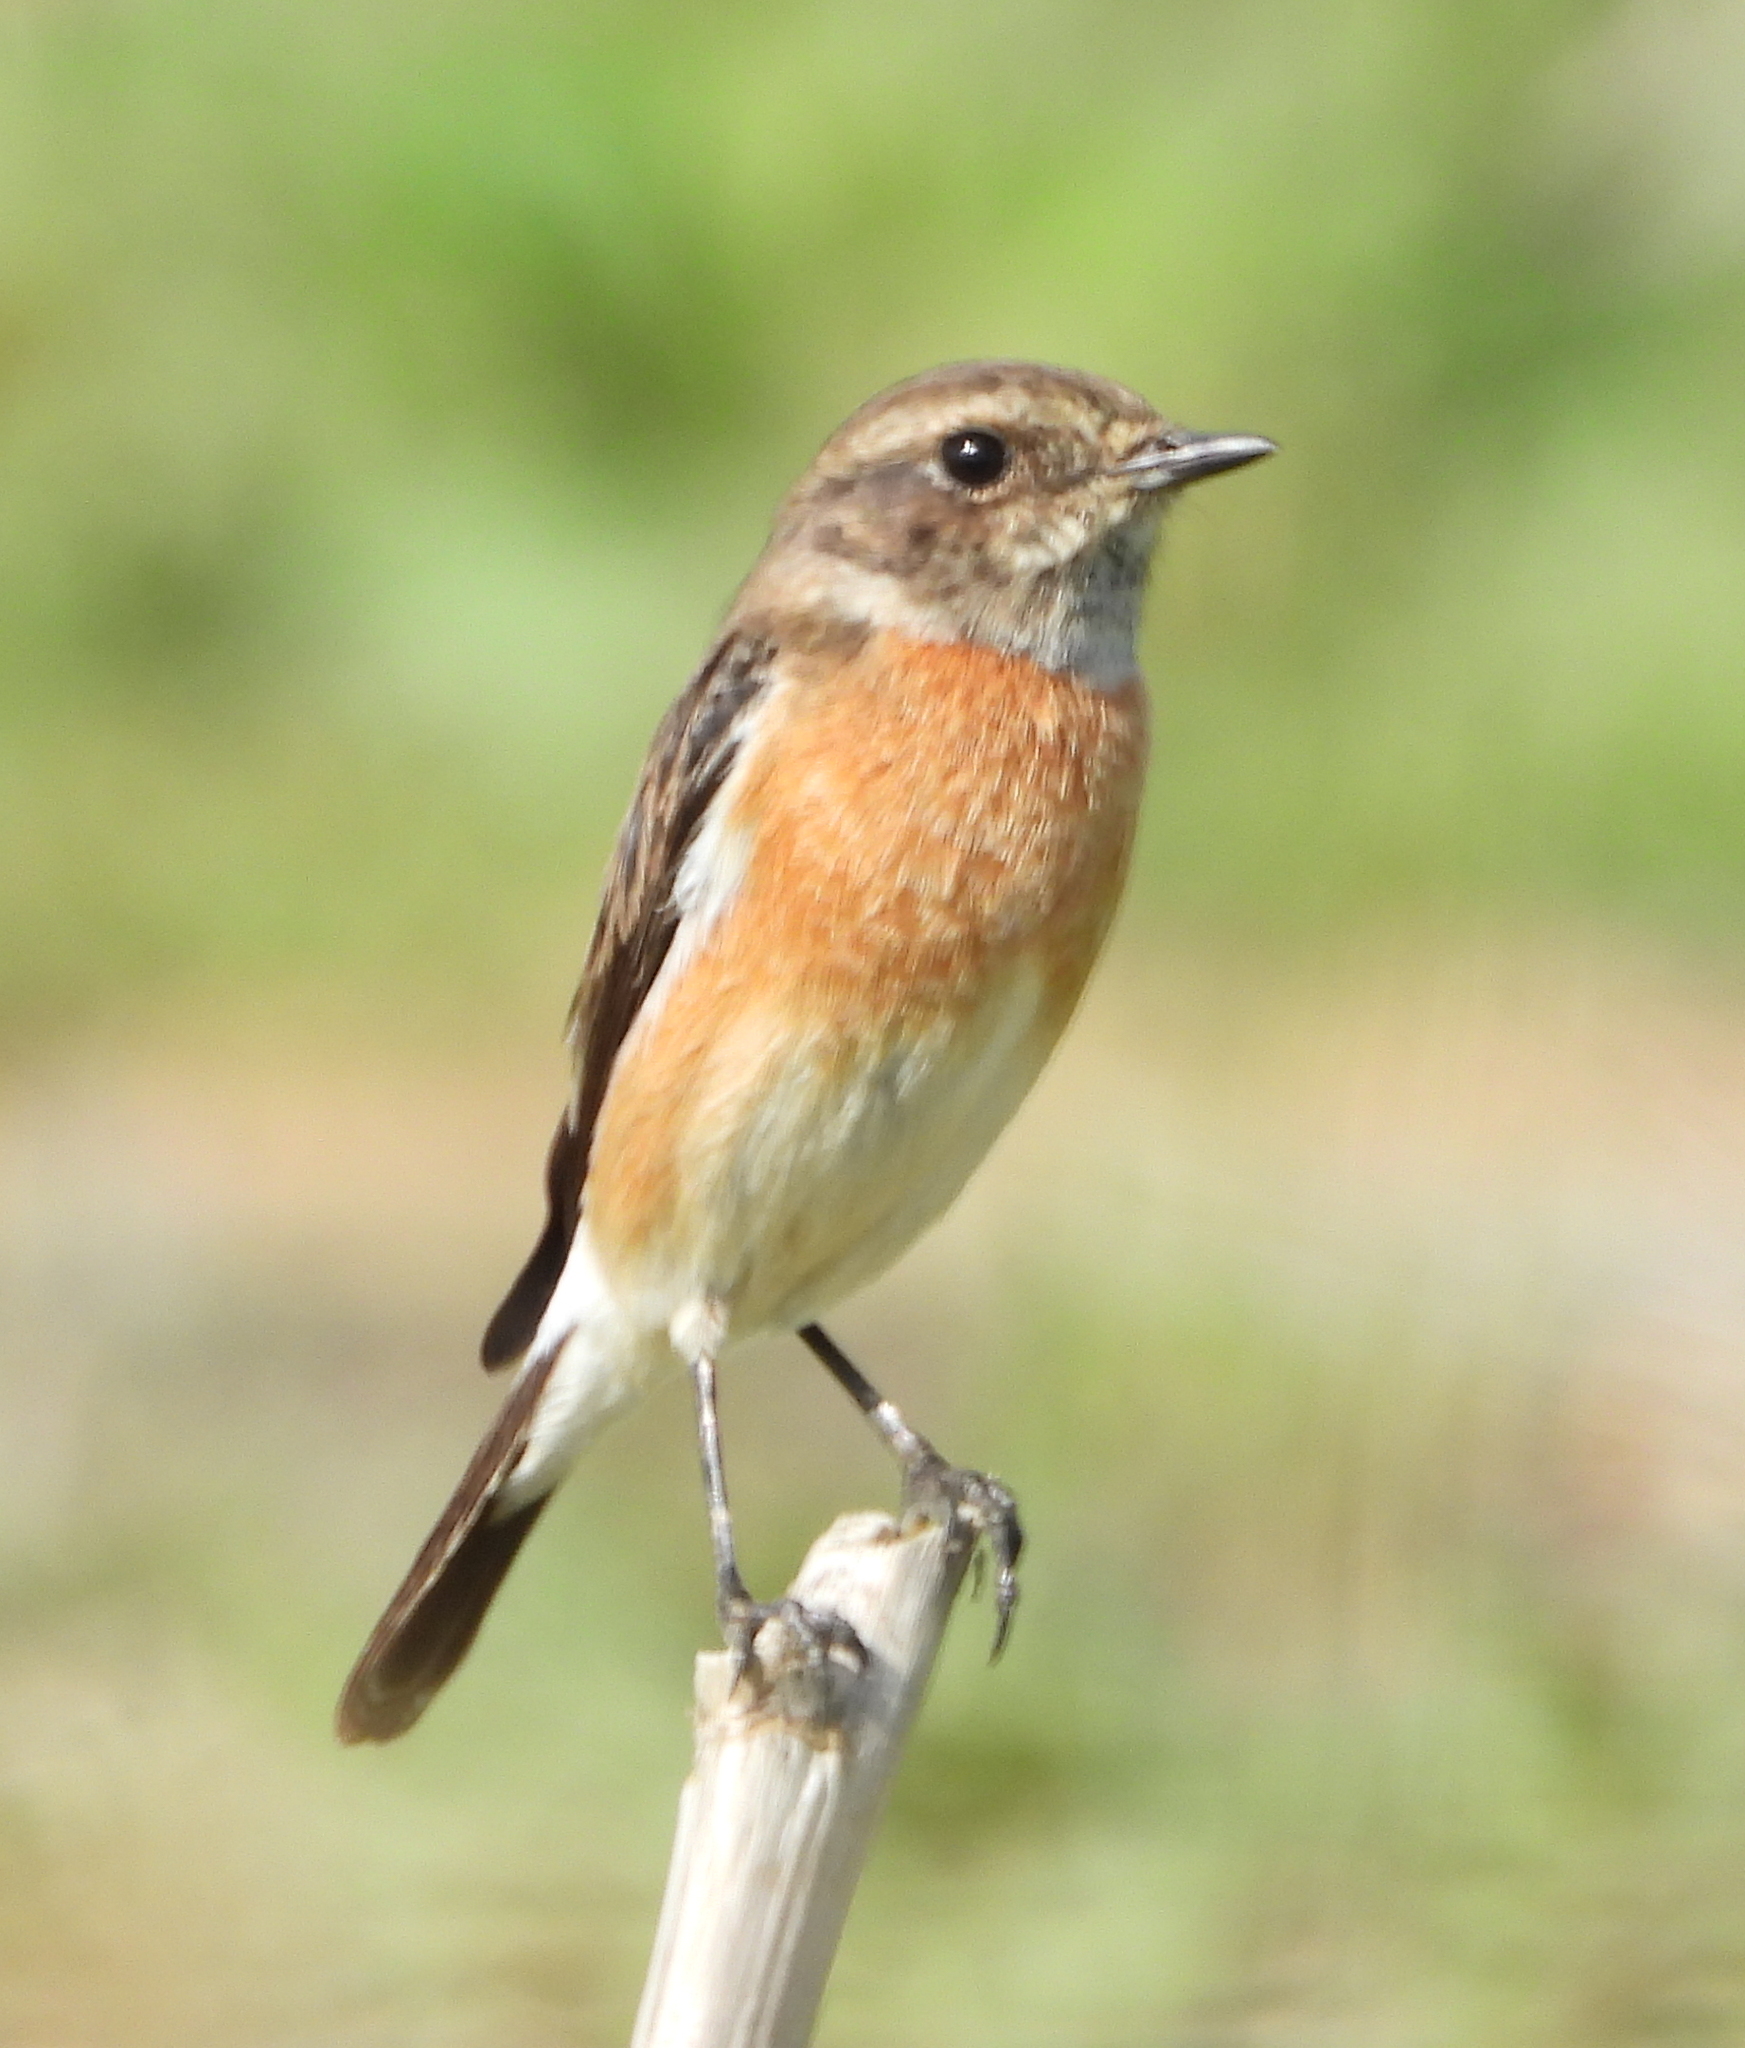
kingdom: Animalia
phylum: Chordata
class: Aves
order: Passeriformes
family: Muscicapidae
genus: Saxicola
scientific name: Saxicola torquatus
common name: African stonechat
